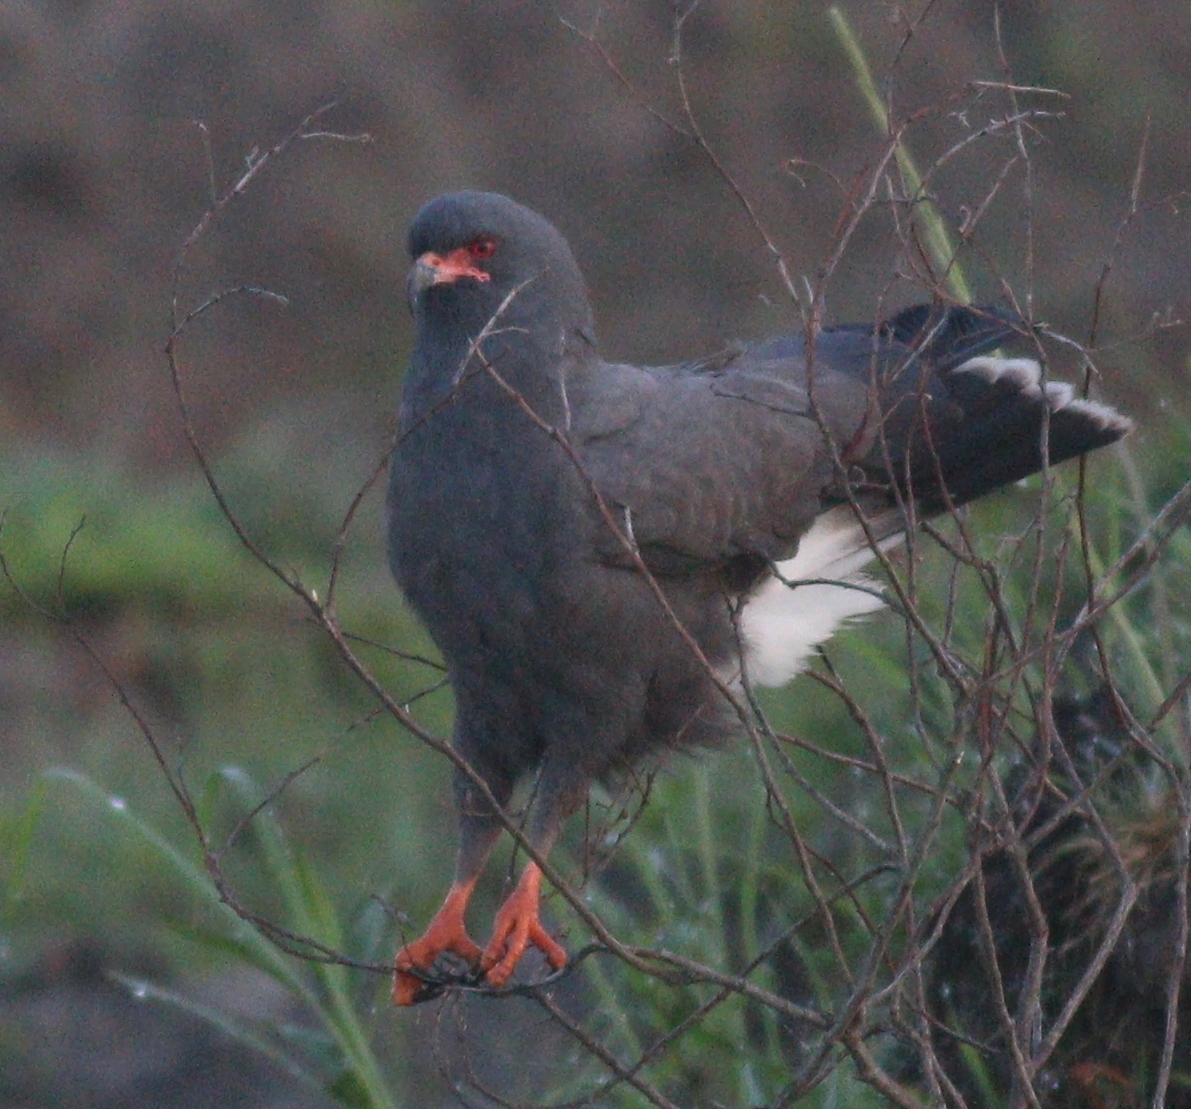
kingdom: Animalia
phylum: Chordata
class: Aves
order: Accipitriformes
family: Accipitridae
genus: Rostrhamus
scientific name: Rostrhamus sociabilis
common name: Snail kite
